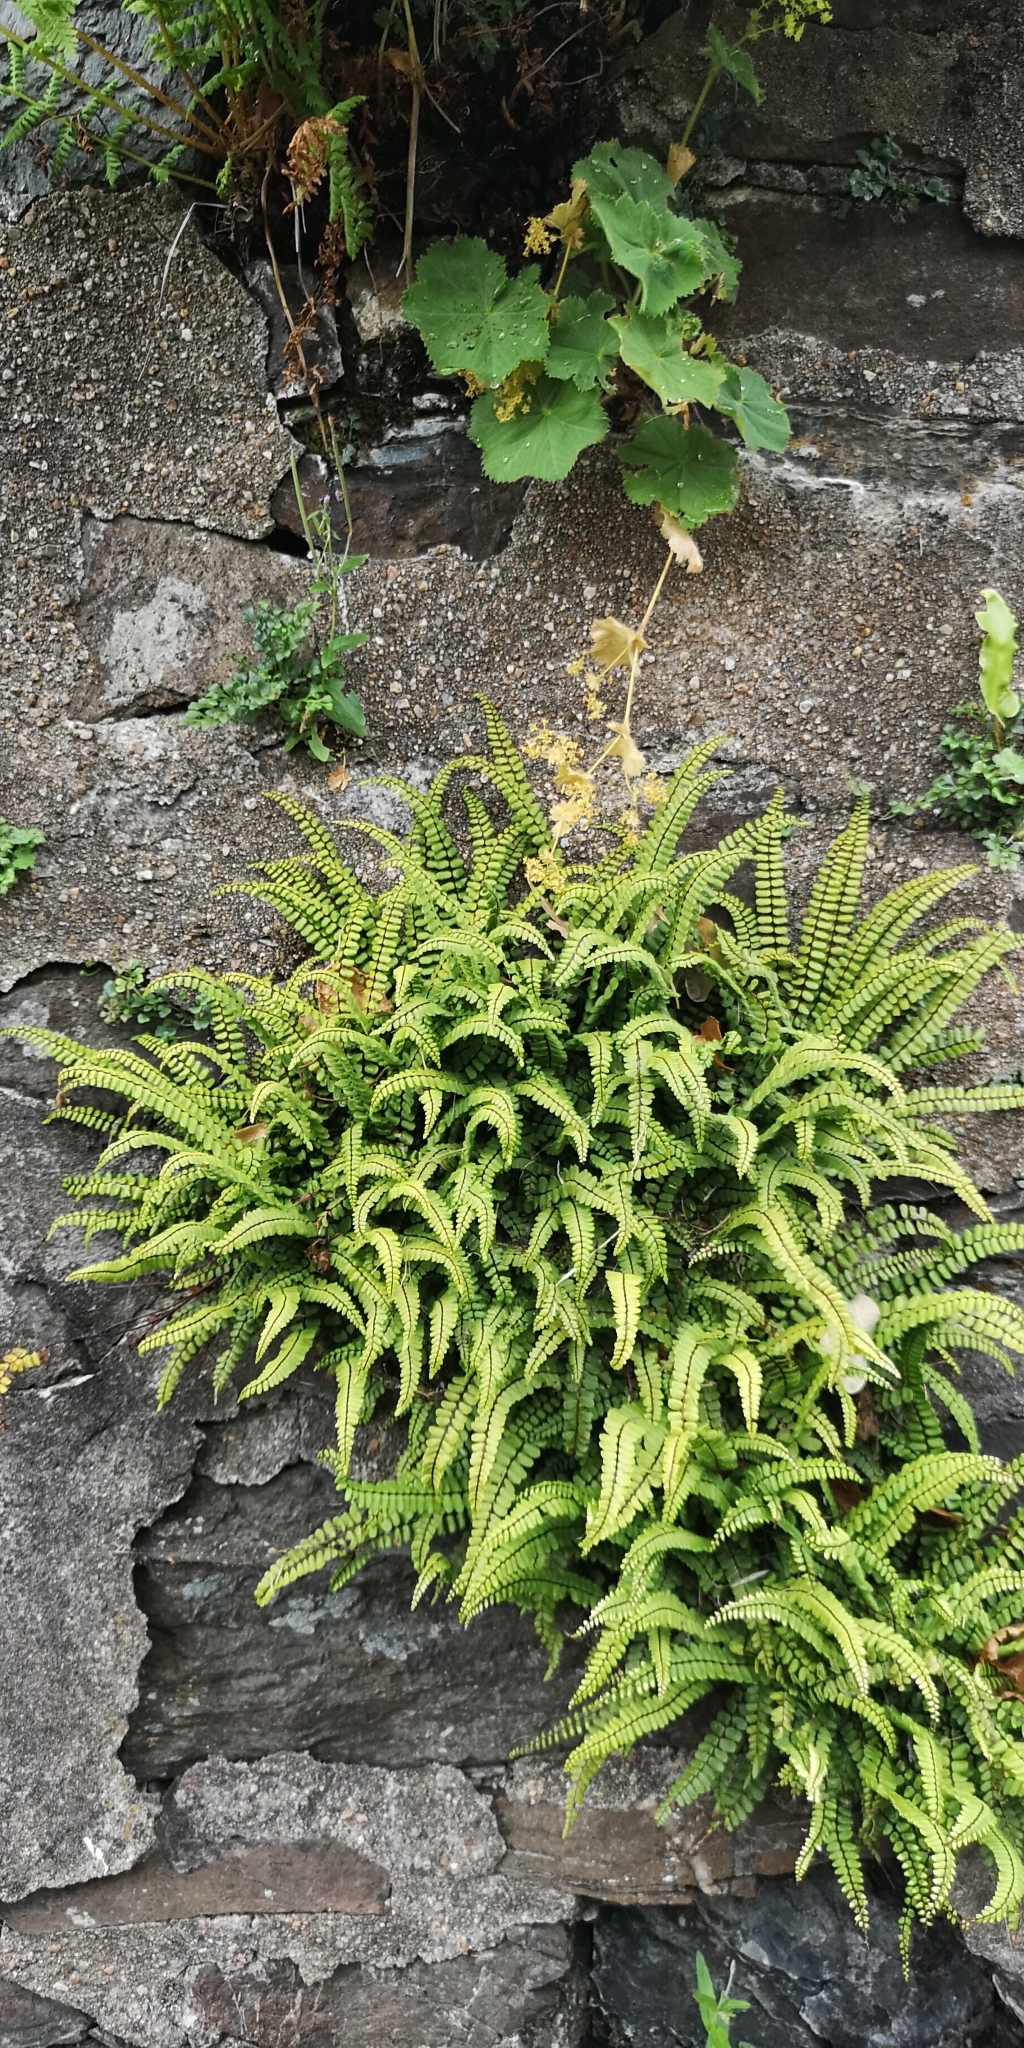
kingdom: Plantae
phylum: Tracheophyta
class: Polypodiopsida
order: Polypodiales
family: Aspleniaceae
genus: Asplenium
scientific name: Asplenium trichomanes
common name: Maidenhair spleenwort
